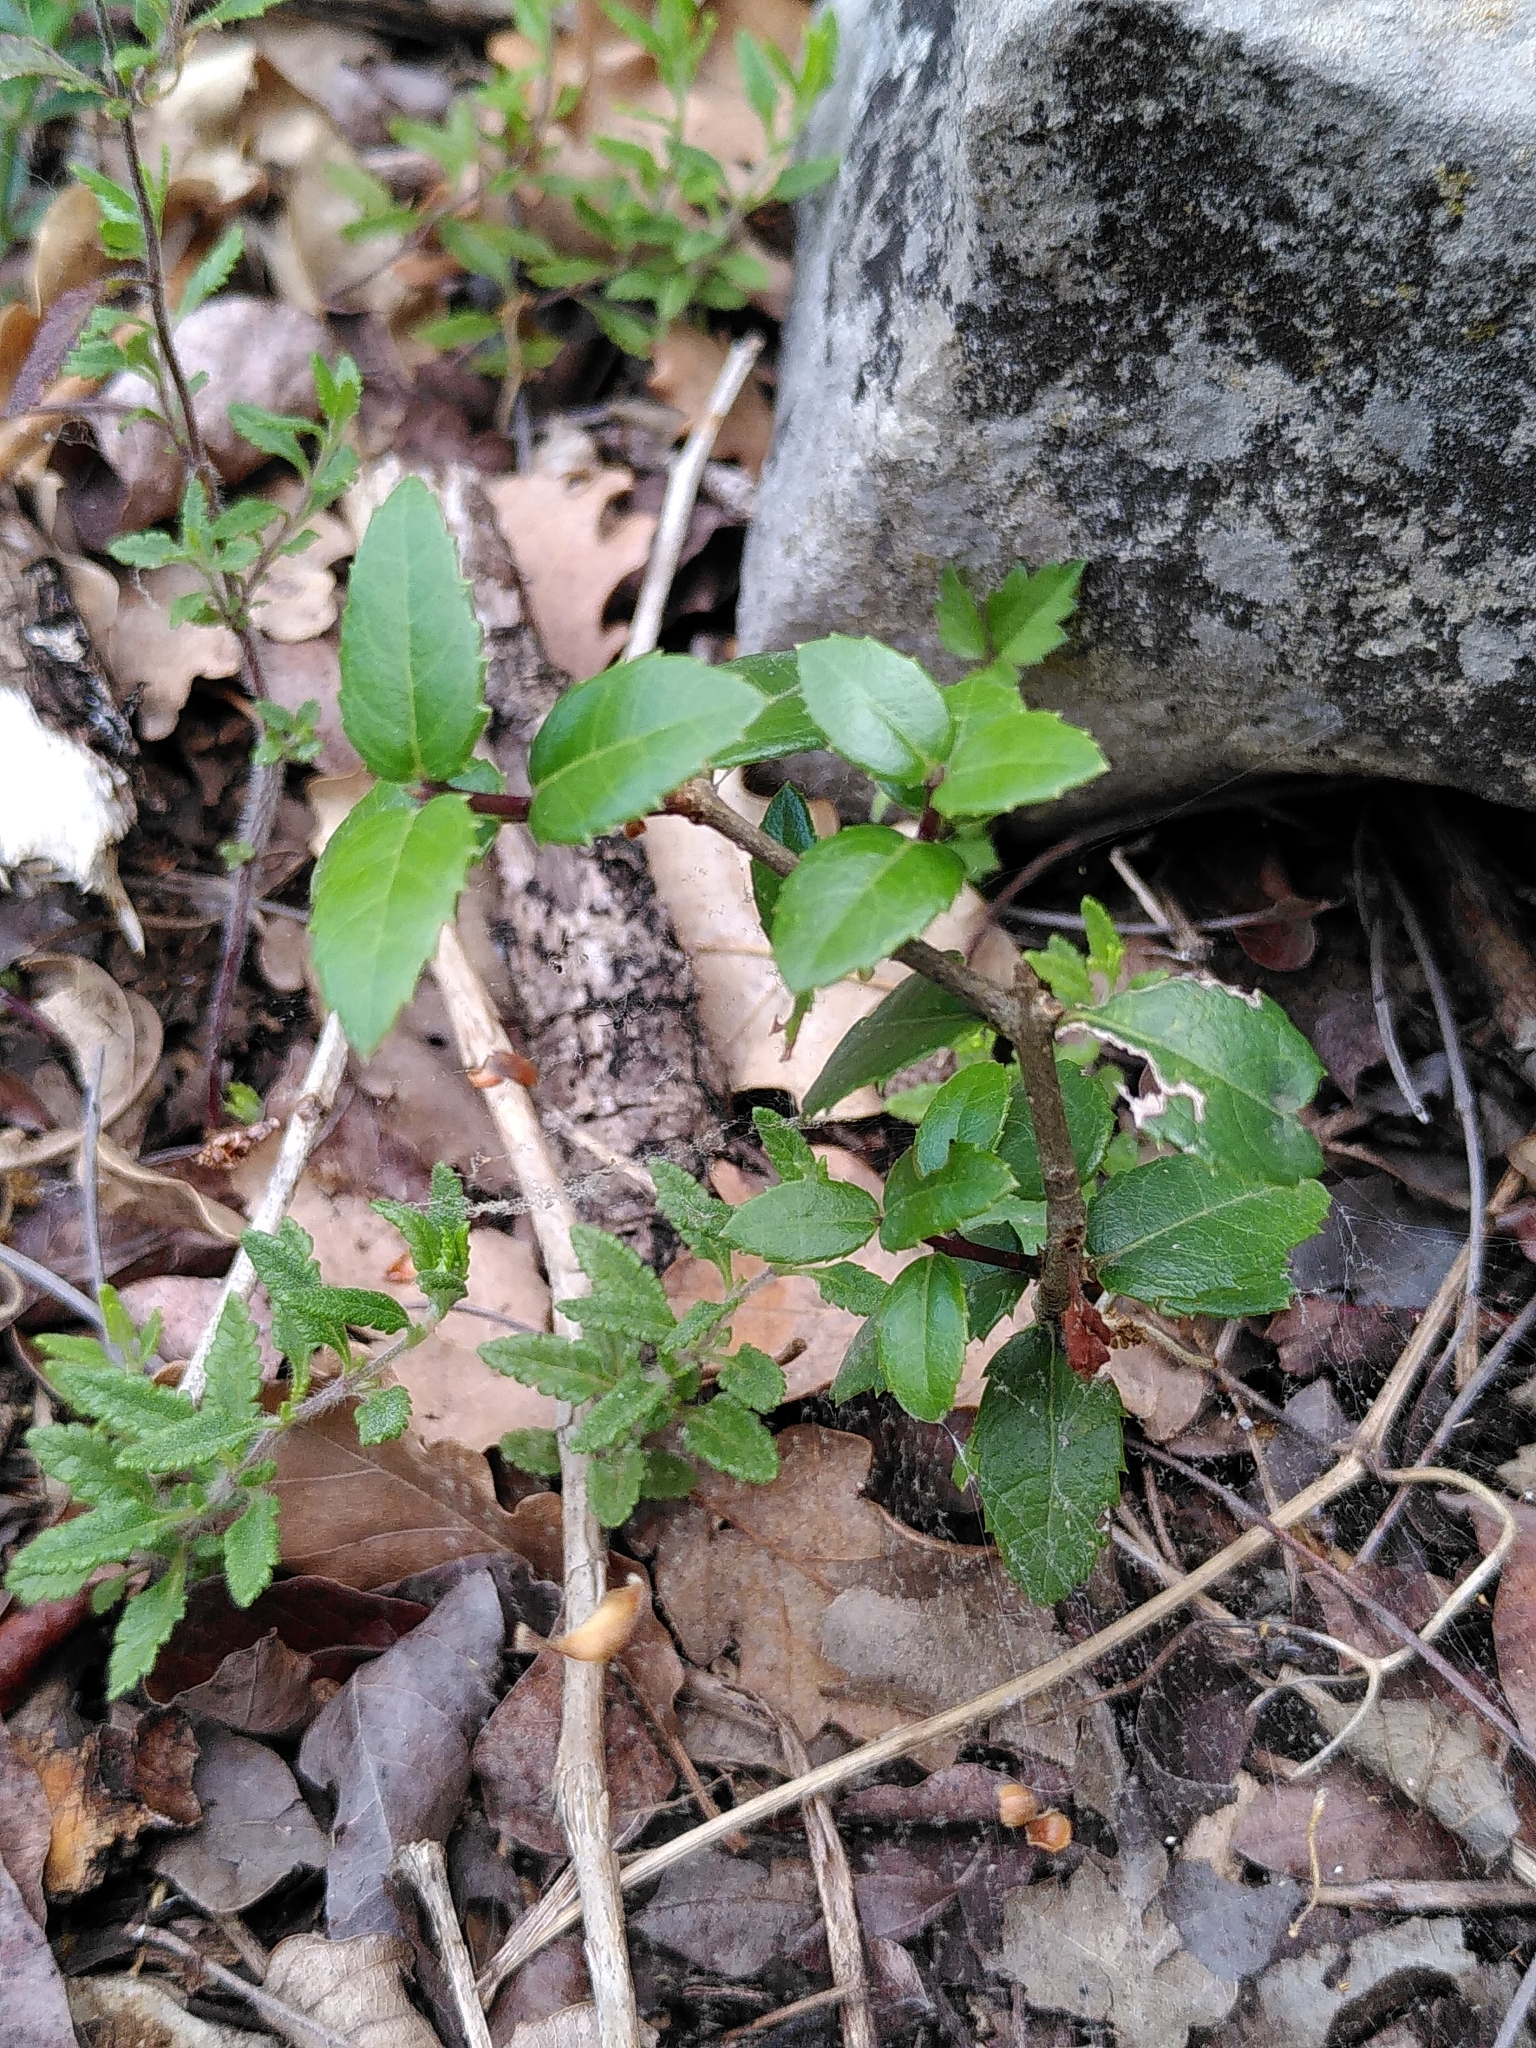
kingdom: Plantae
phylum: Tracheophyta
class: Magnoliopsida
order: Lamiales
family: Oleaceae
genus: Phillyrea
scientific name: Phillyrea latifolia
